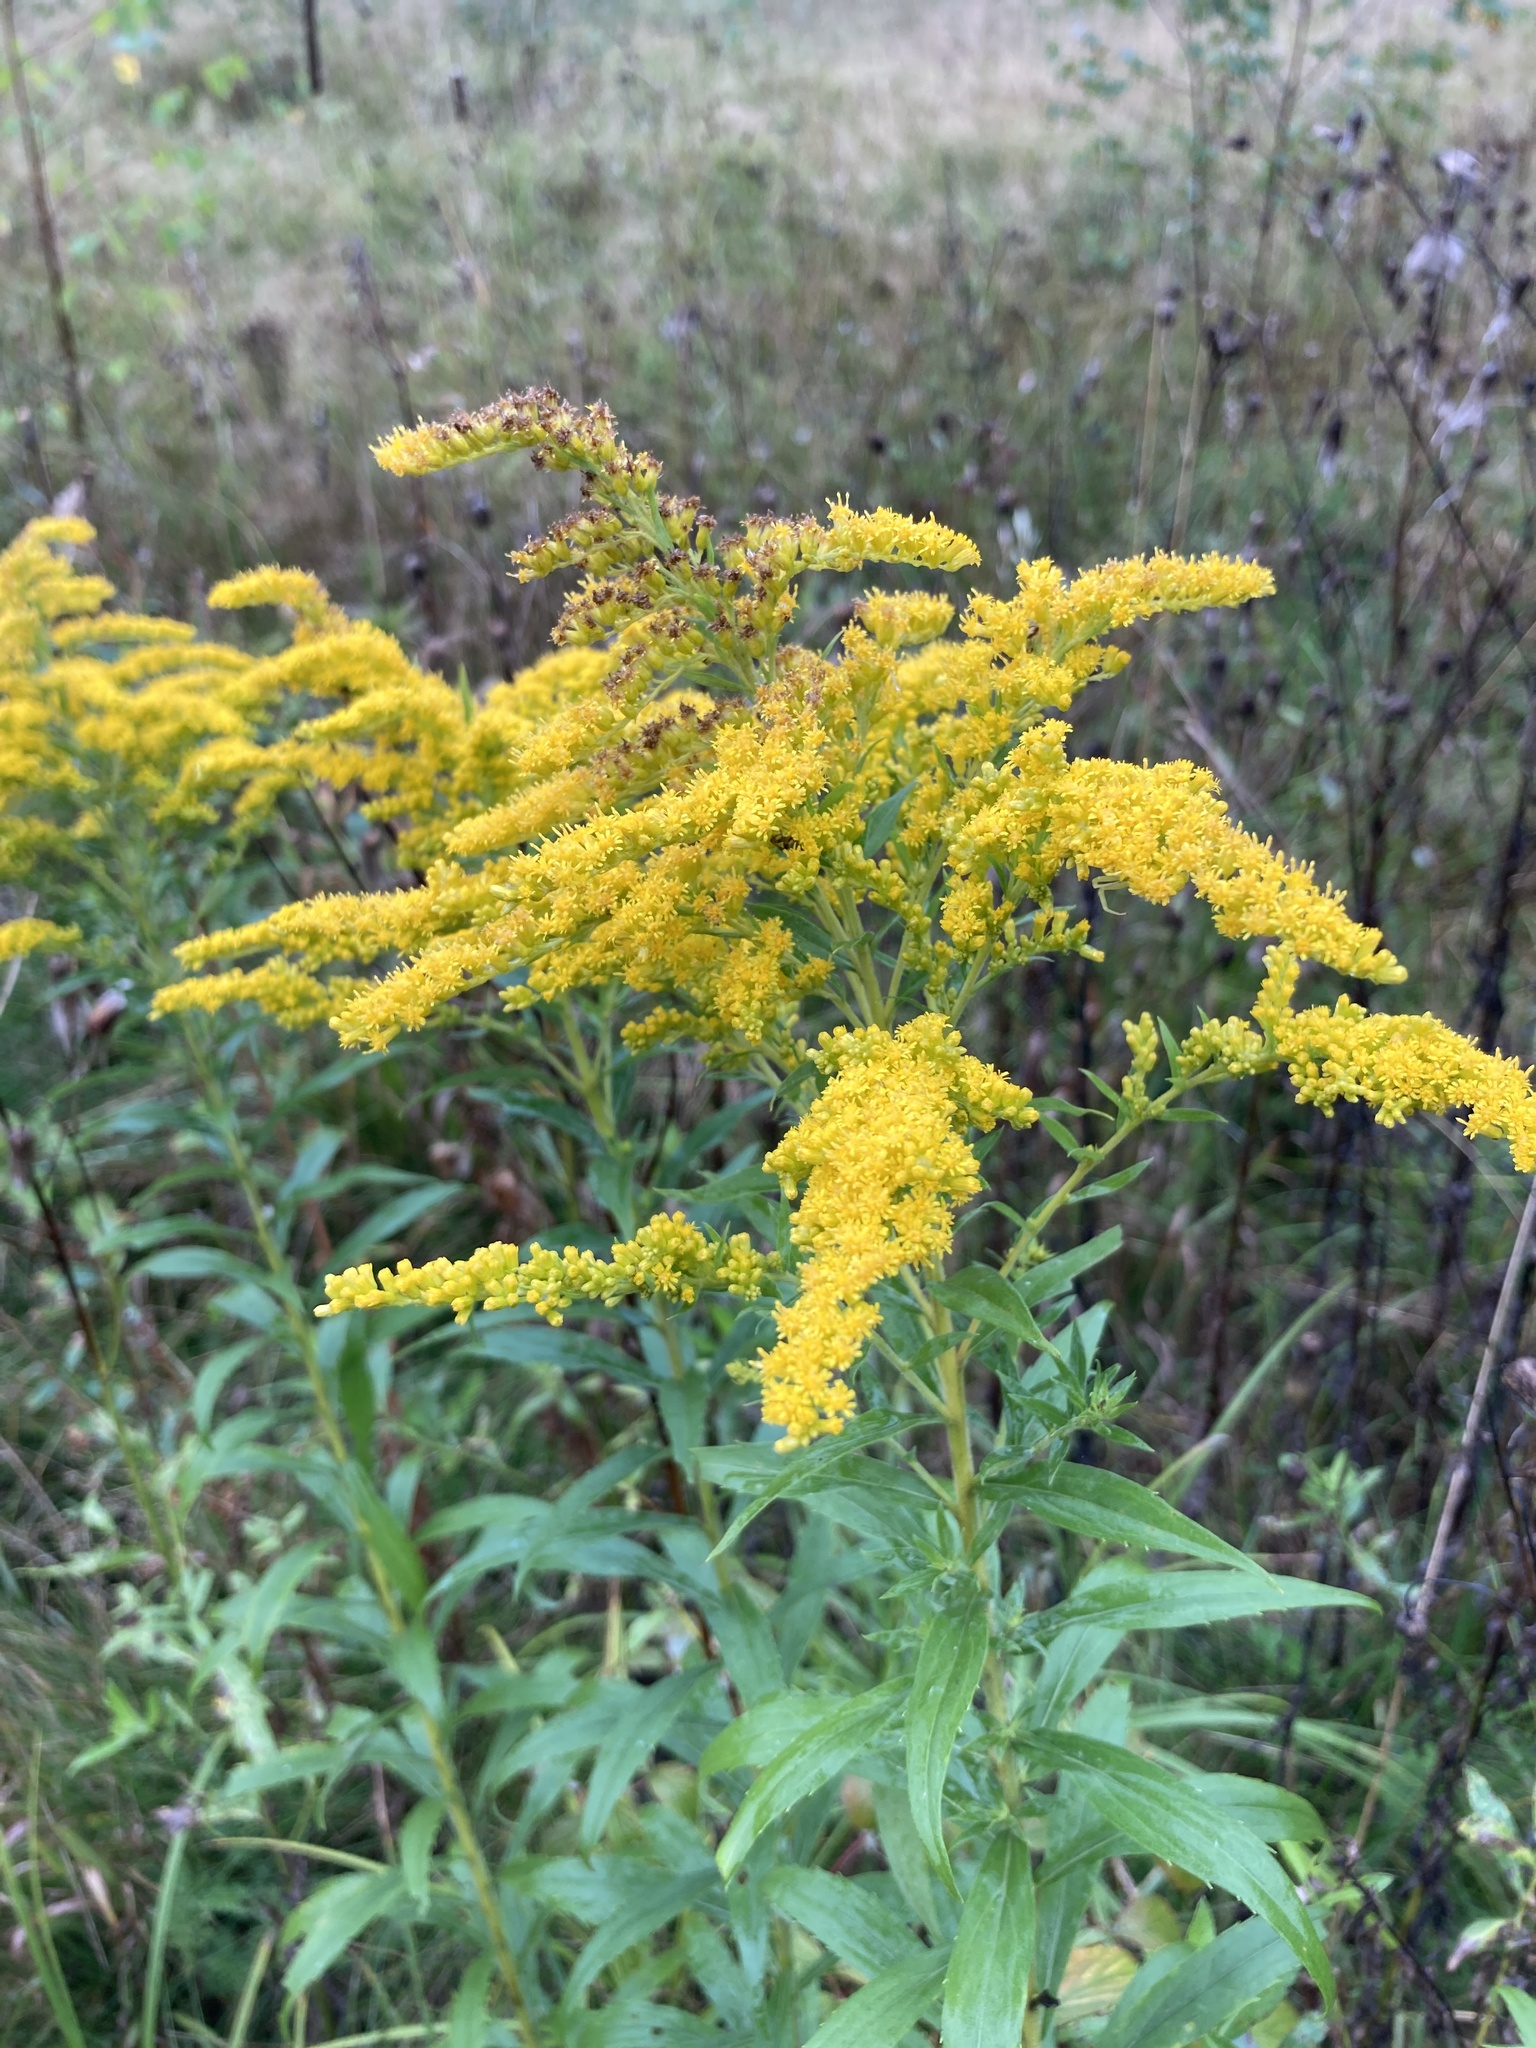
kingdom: Plantae
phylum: Tracheophyta
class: Magnoliopsida
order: Asterales
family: Asteraceae
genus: Solidago
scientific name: Solidago canadensis
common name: Canada goldenrod
